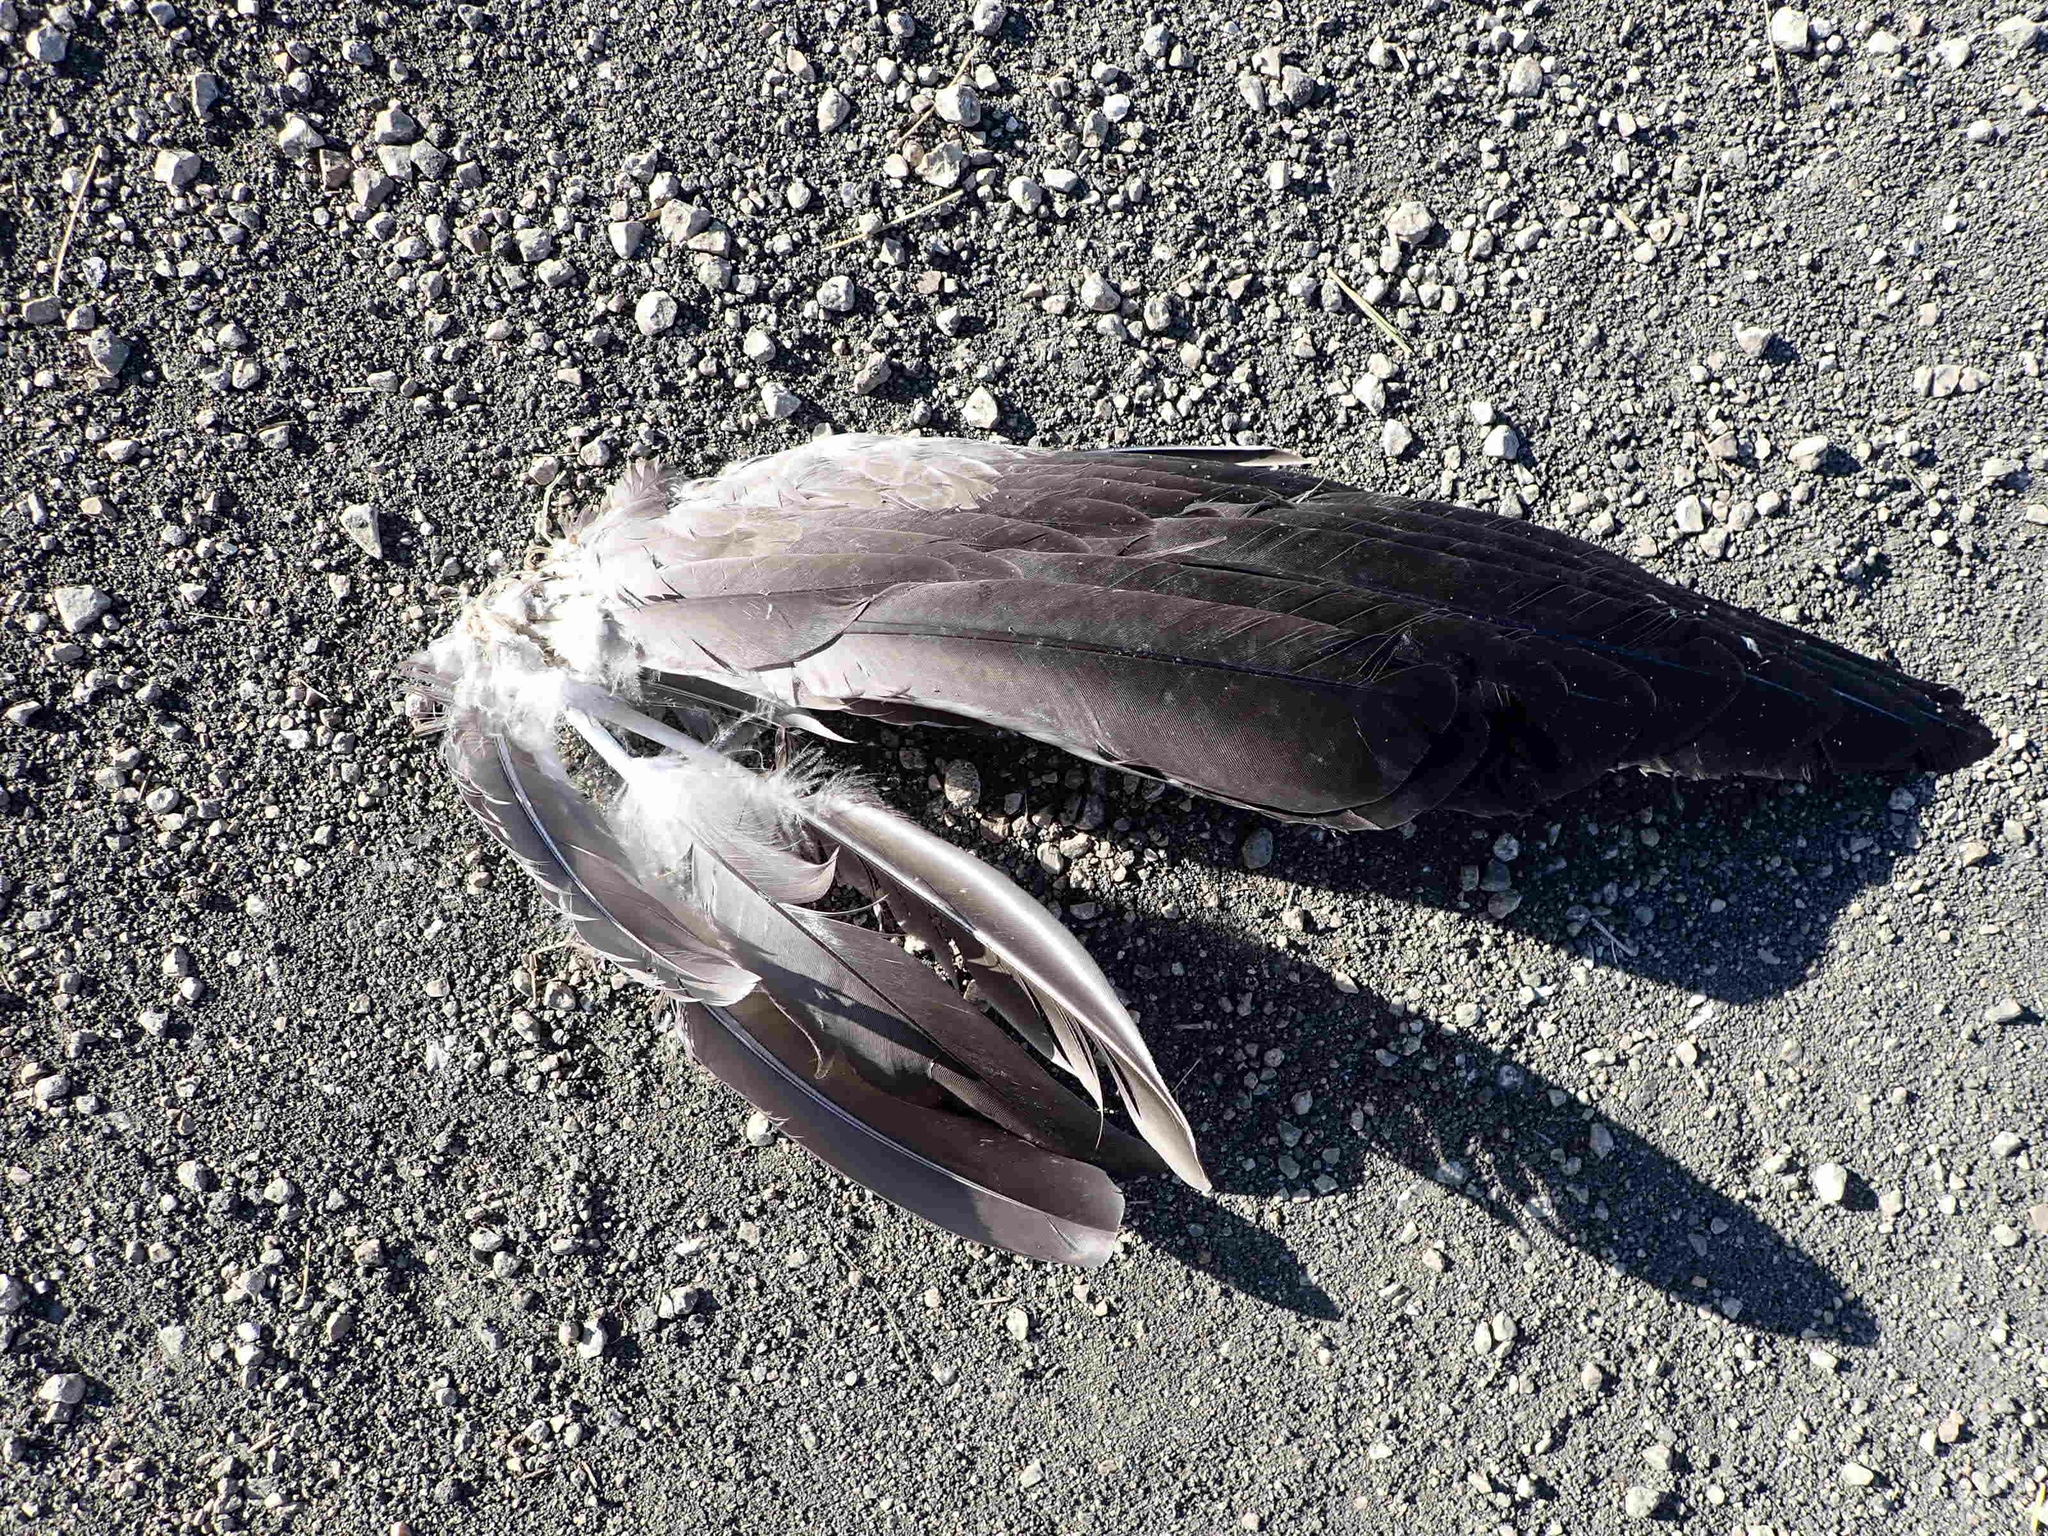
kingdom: Animalia
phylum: Chordata
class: Aves
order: Anseriformes
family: Anatidae
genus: Branta
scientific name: Branta canadensis
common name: Canada goose
